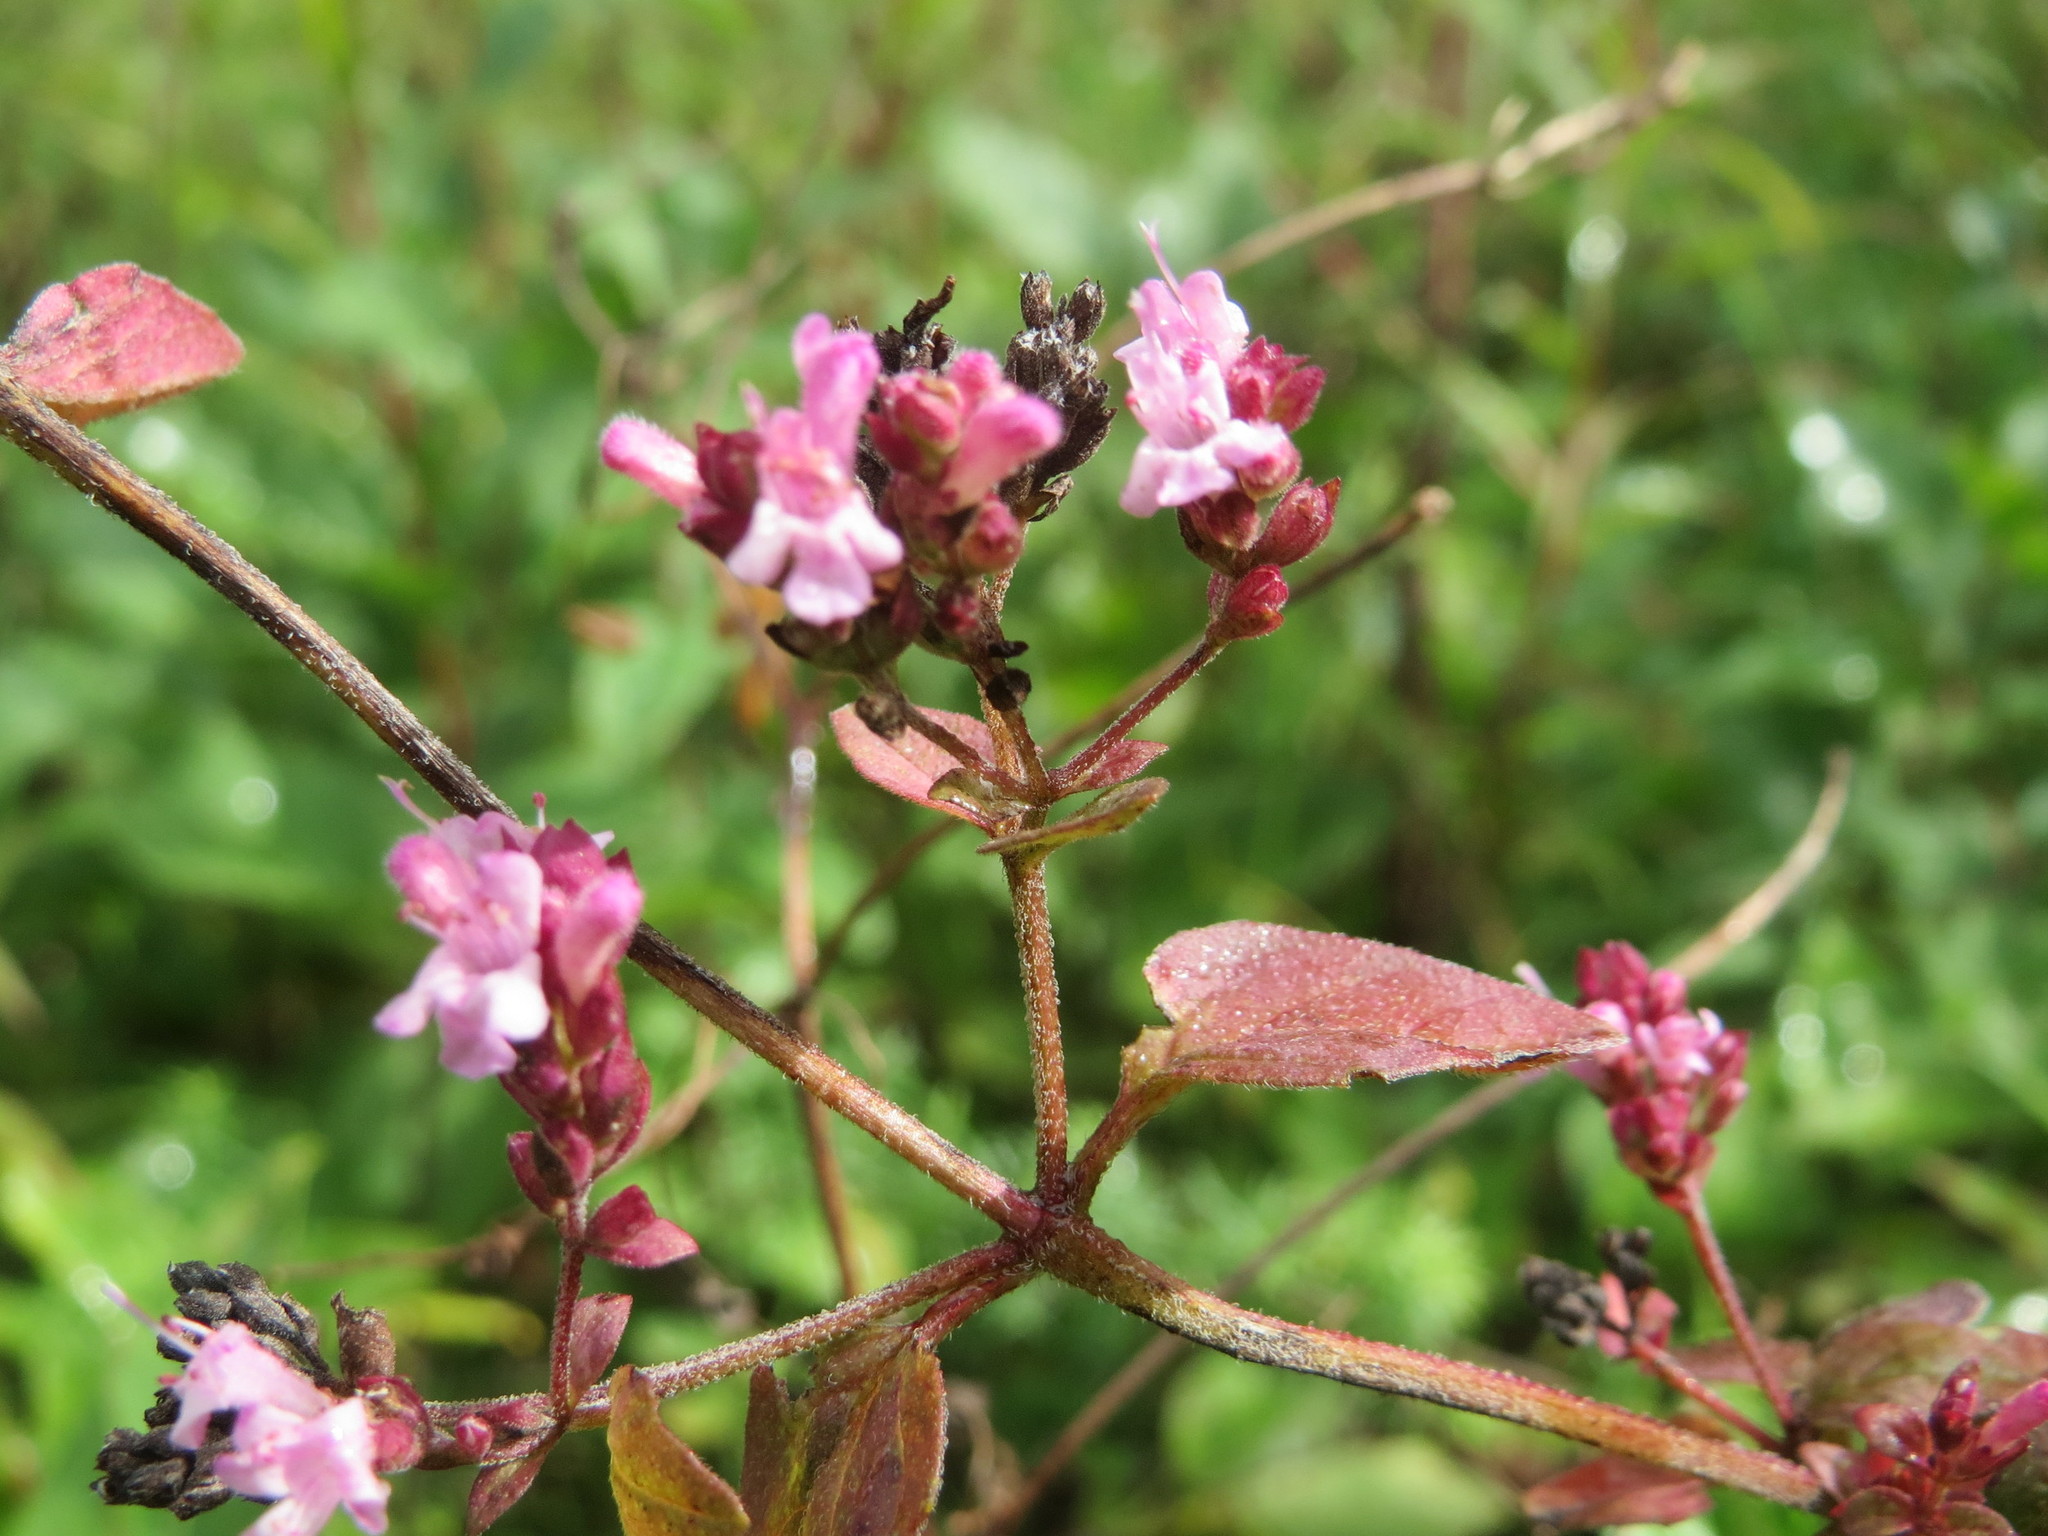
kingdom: Plantae
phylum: Tracheophyta
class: Magnoliopsida
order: Lamiales
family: Lamiaceae
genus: Origanum
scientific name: Origanum vulgare
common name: Wild marjoram
